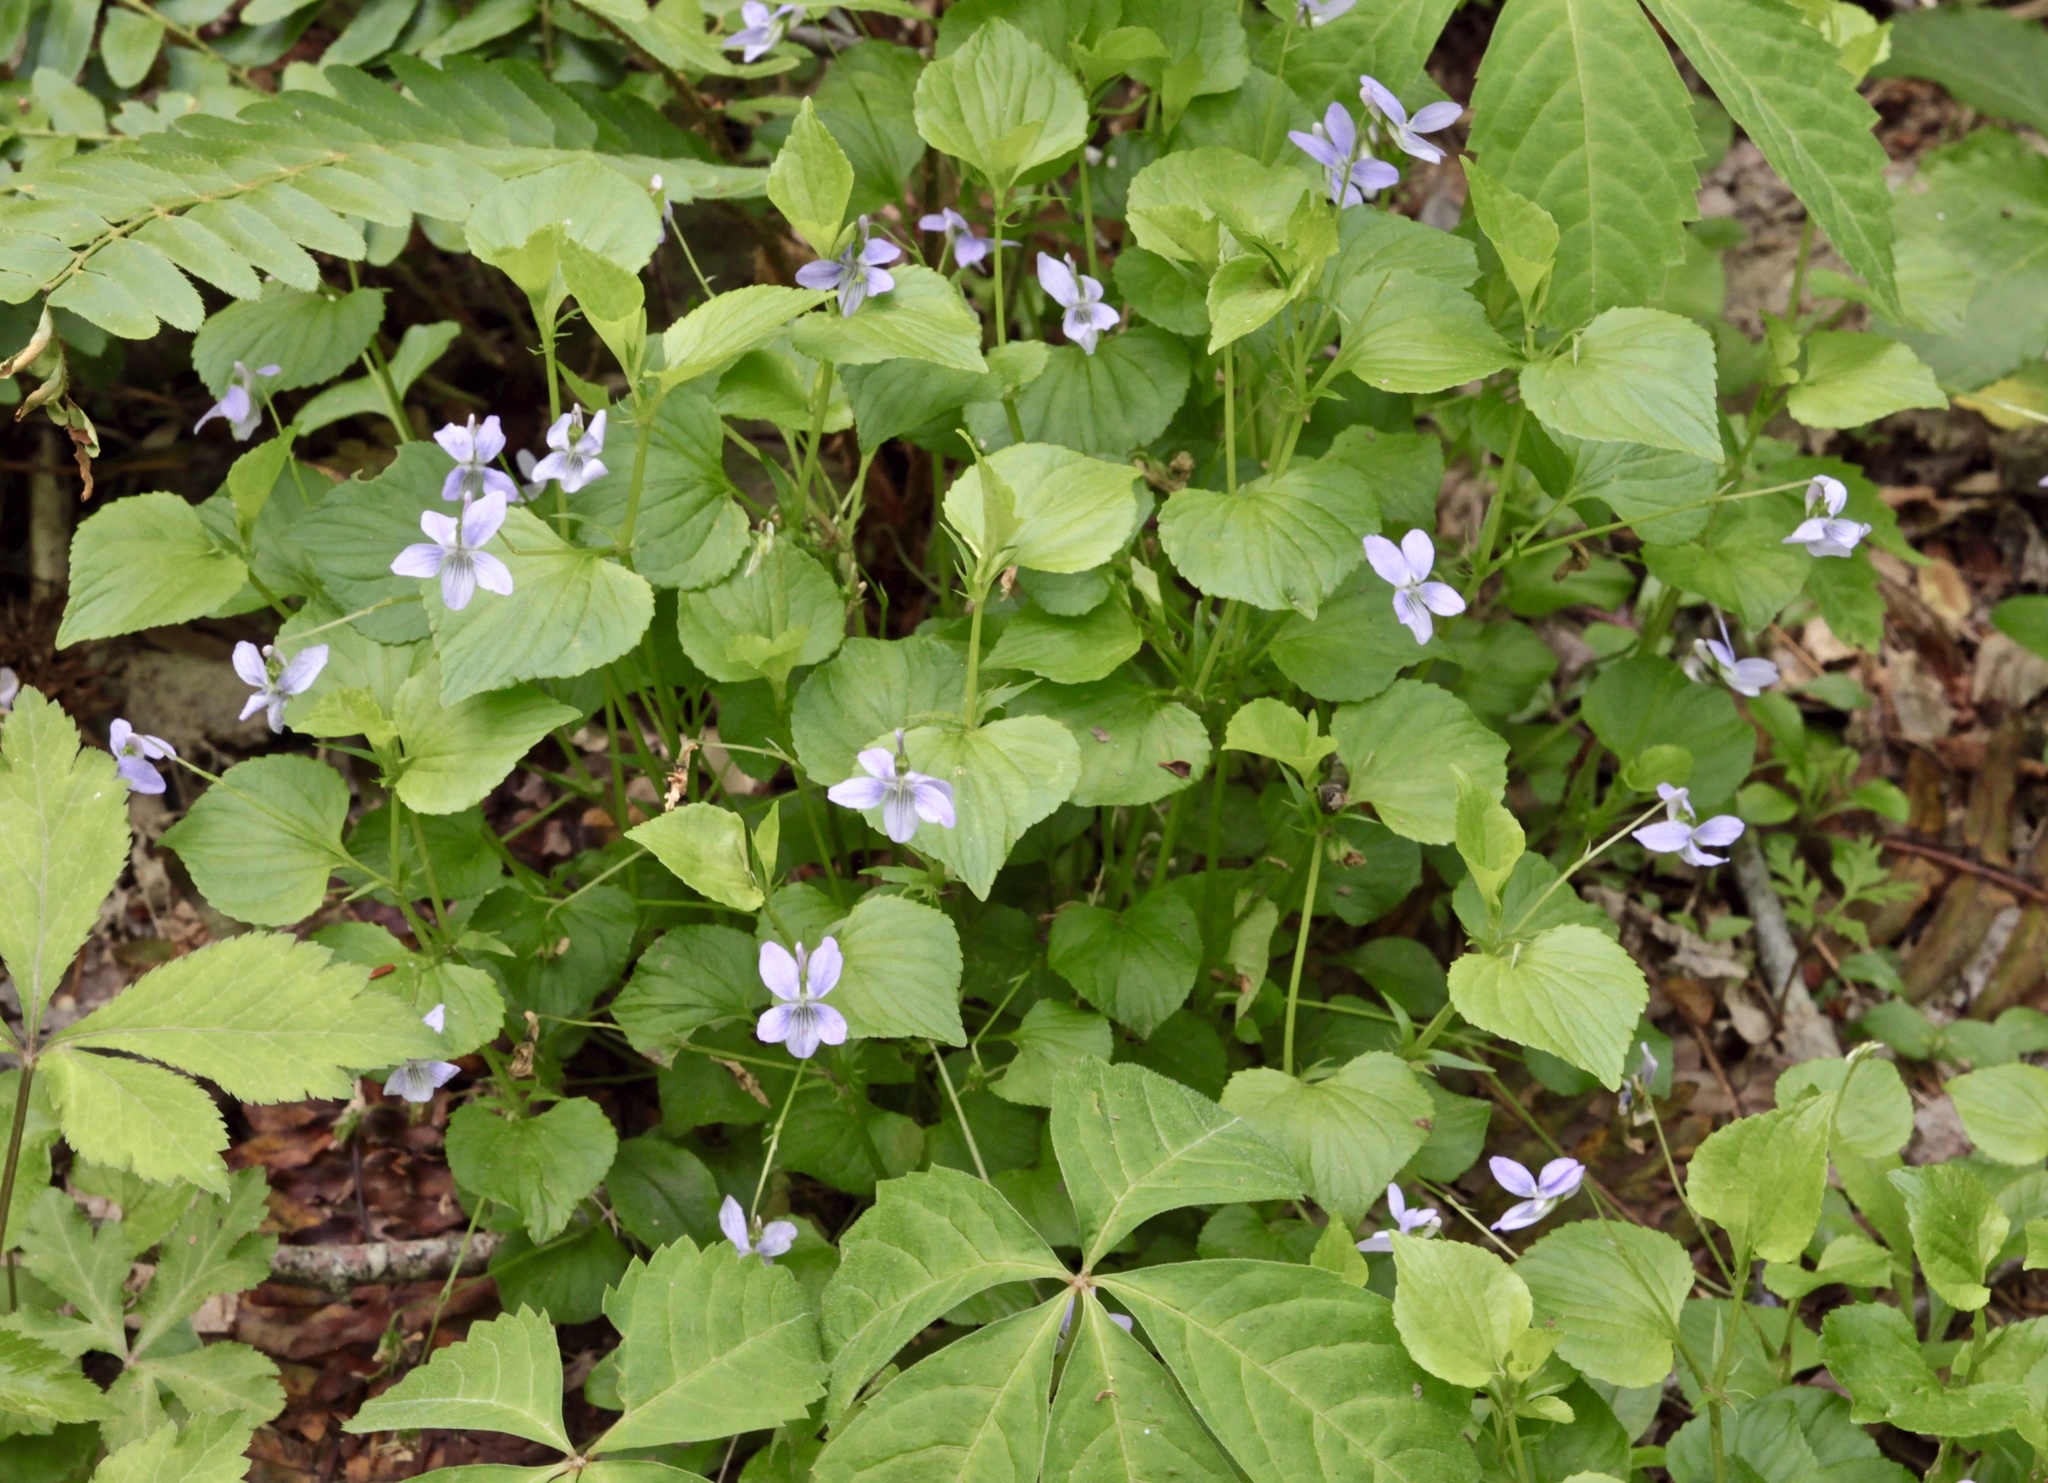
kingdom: Plantae
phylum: Tracheophyta
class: Magnoliopsida
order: Malpighiales
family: Violaceae
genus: Viola
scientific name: Viola labradorica
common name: Labrador violet
